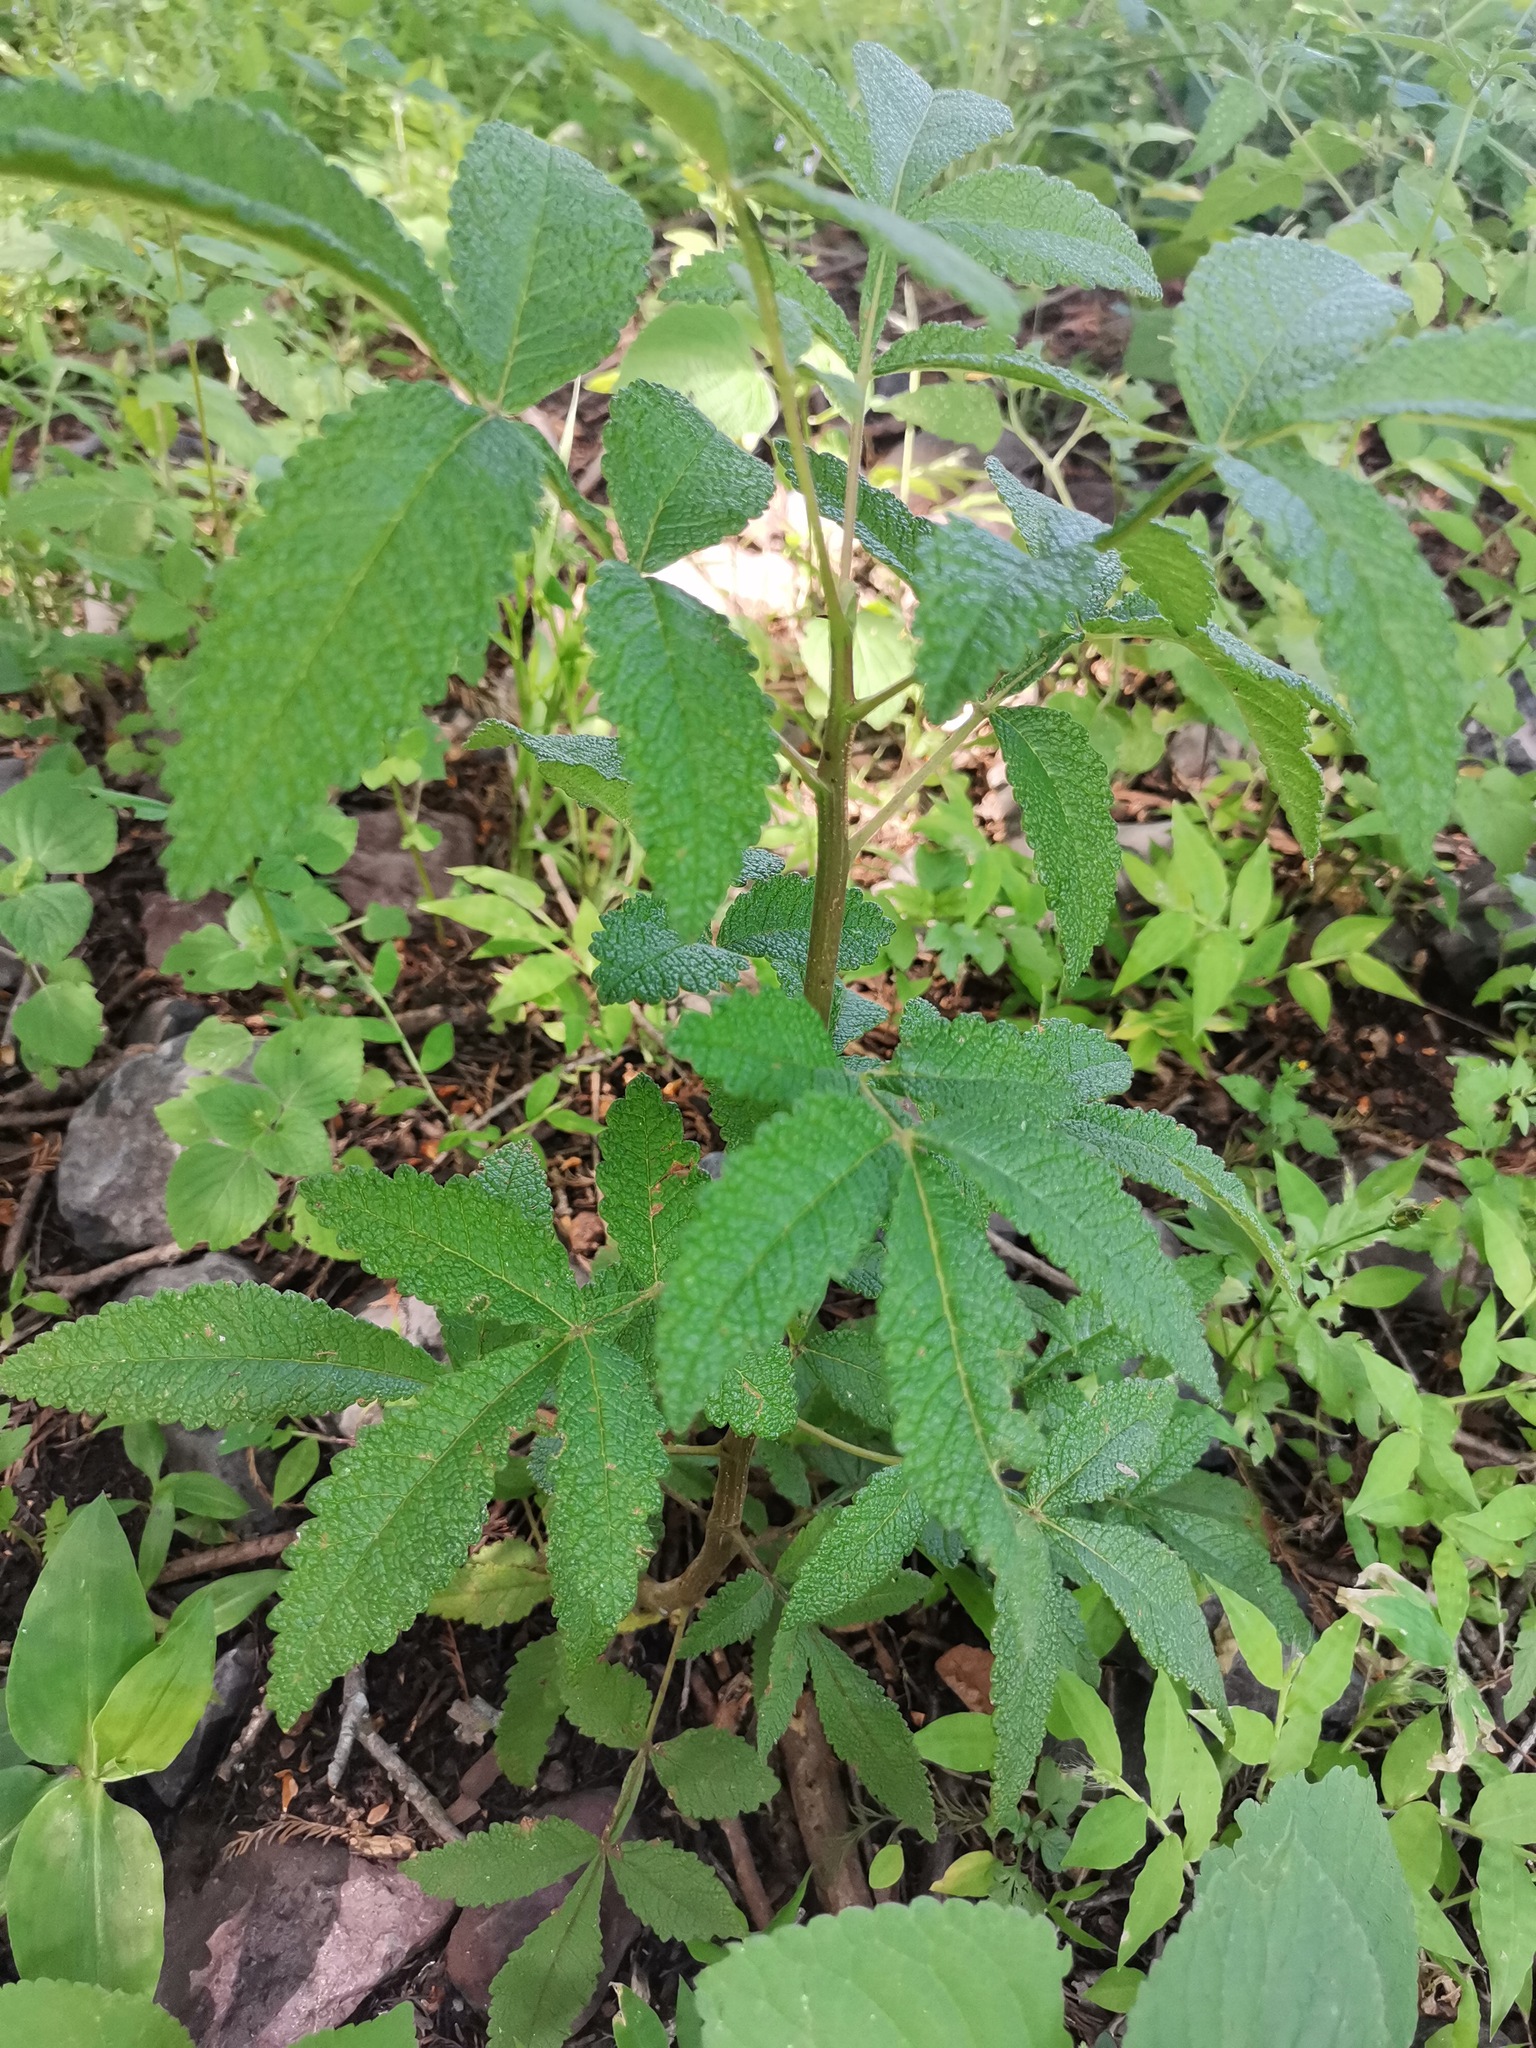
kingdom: Plantae
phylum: Tracheophyta
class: Magnoliopsida
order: Sapindales
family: Burseraceae
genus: Bursera
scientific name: Bursera cuneata
